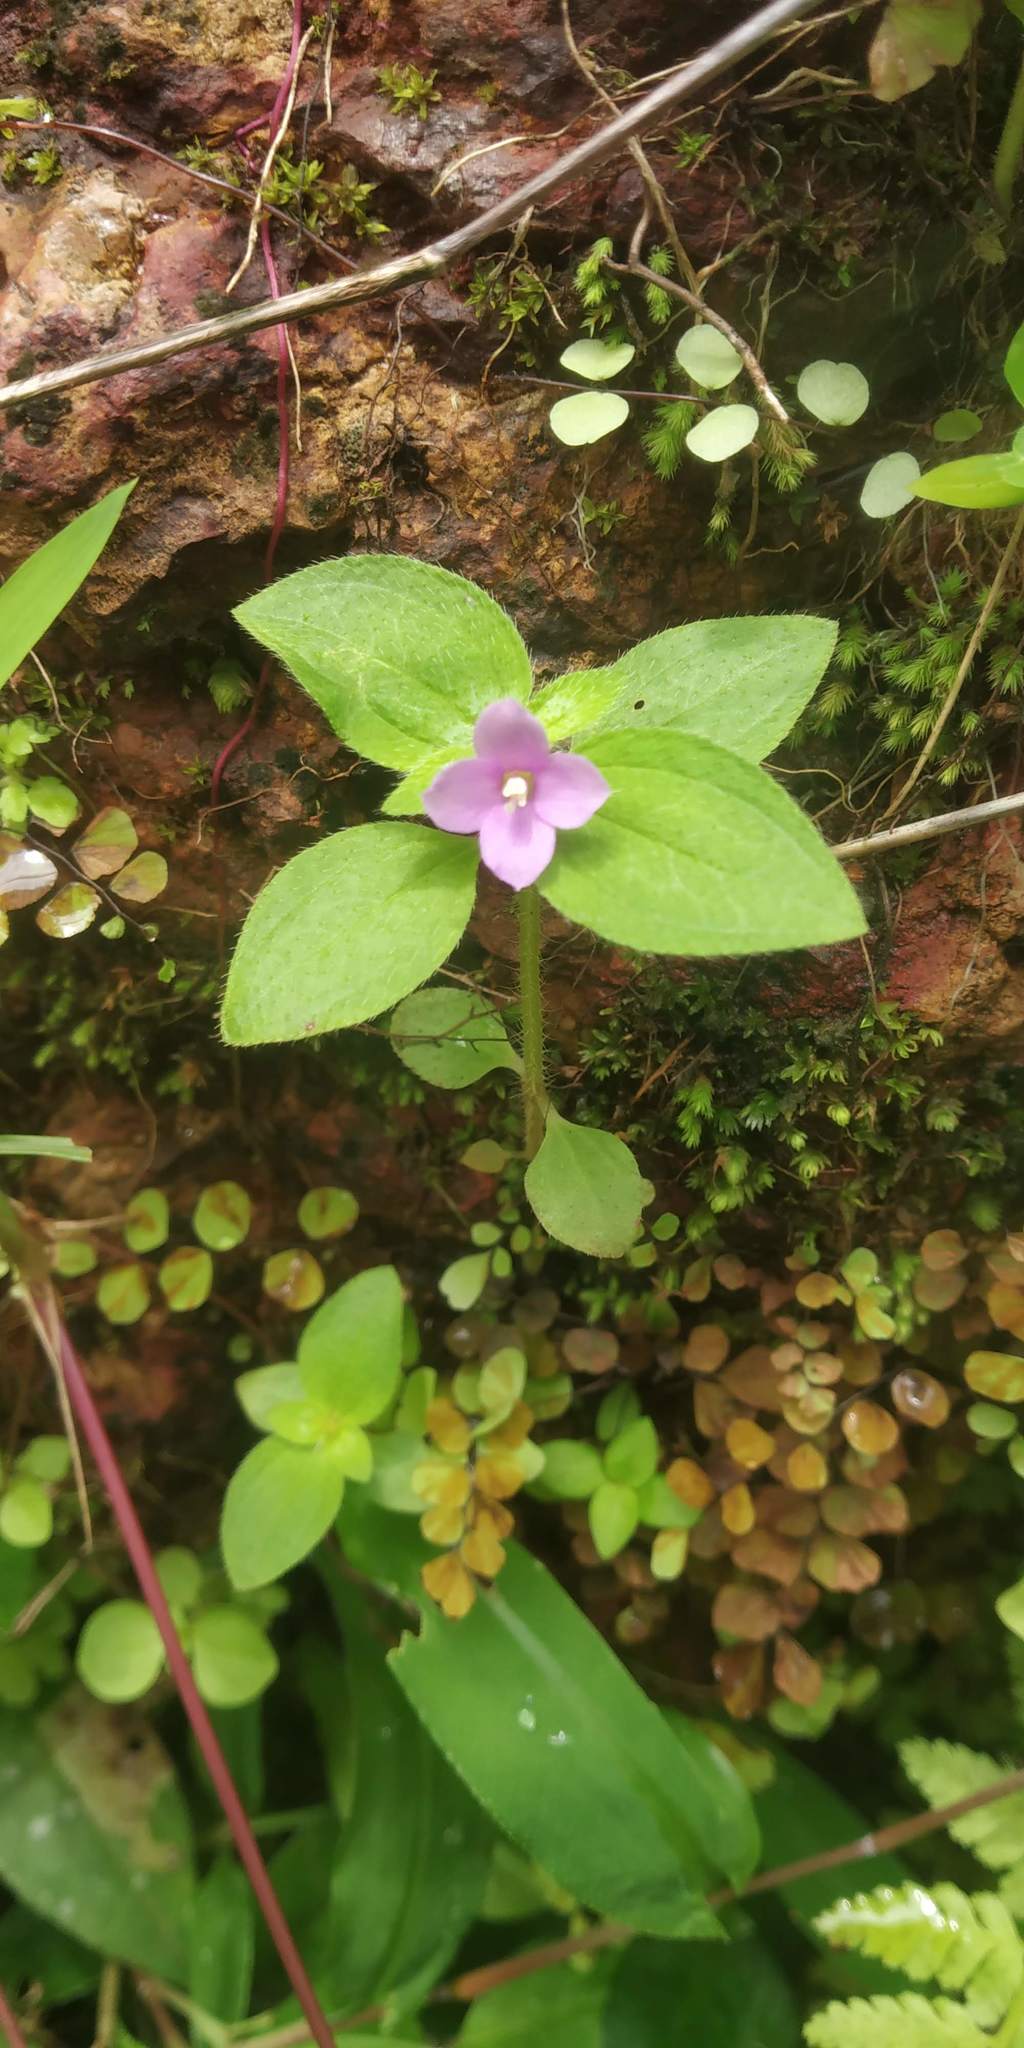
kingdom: Plantae
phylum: Tracheophyta
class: Magnoliopsida
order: Myrtales
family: Melastomataceae
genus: Osbeckia
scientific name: Osbeckia muralis
